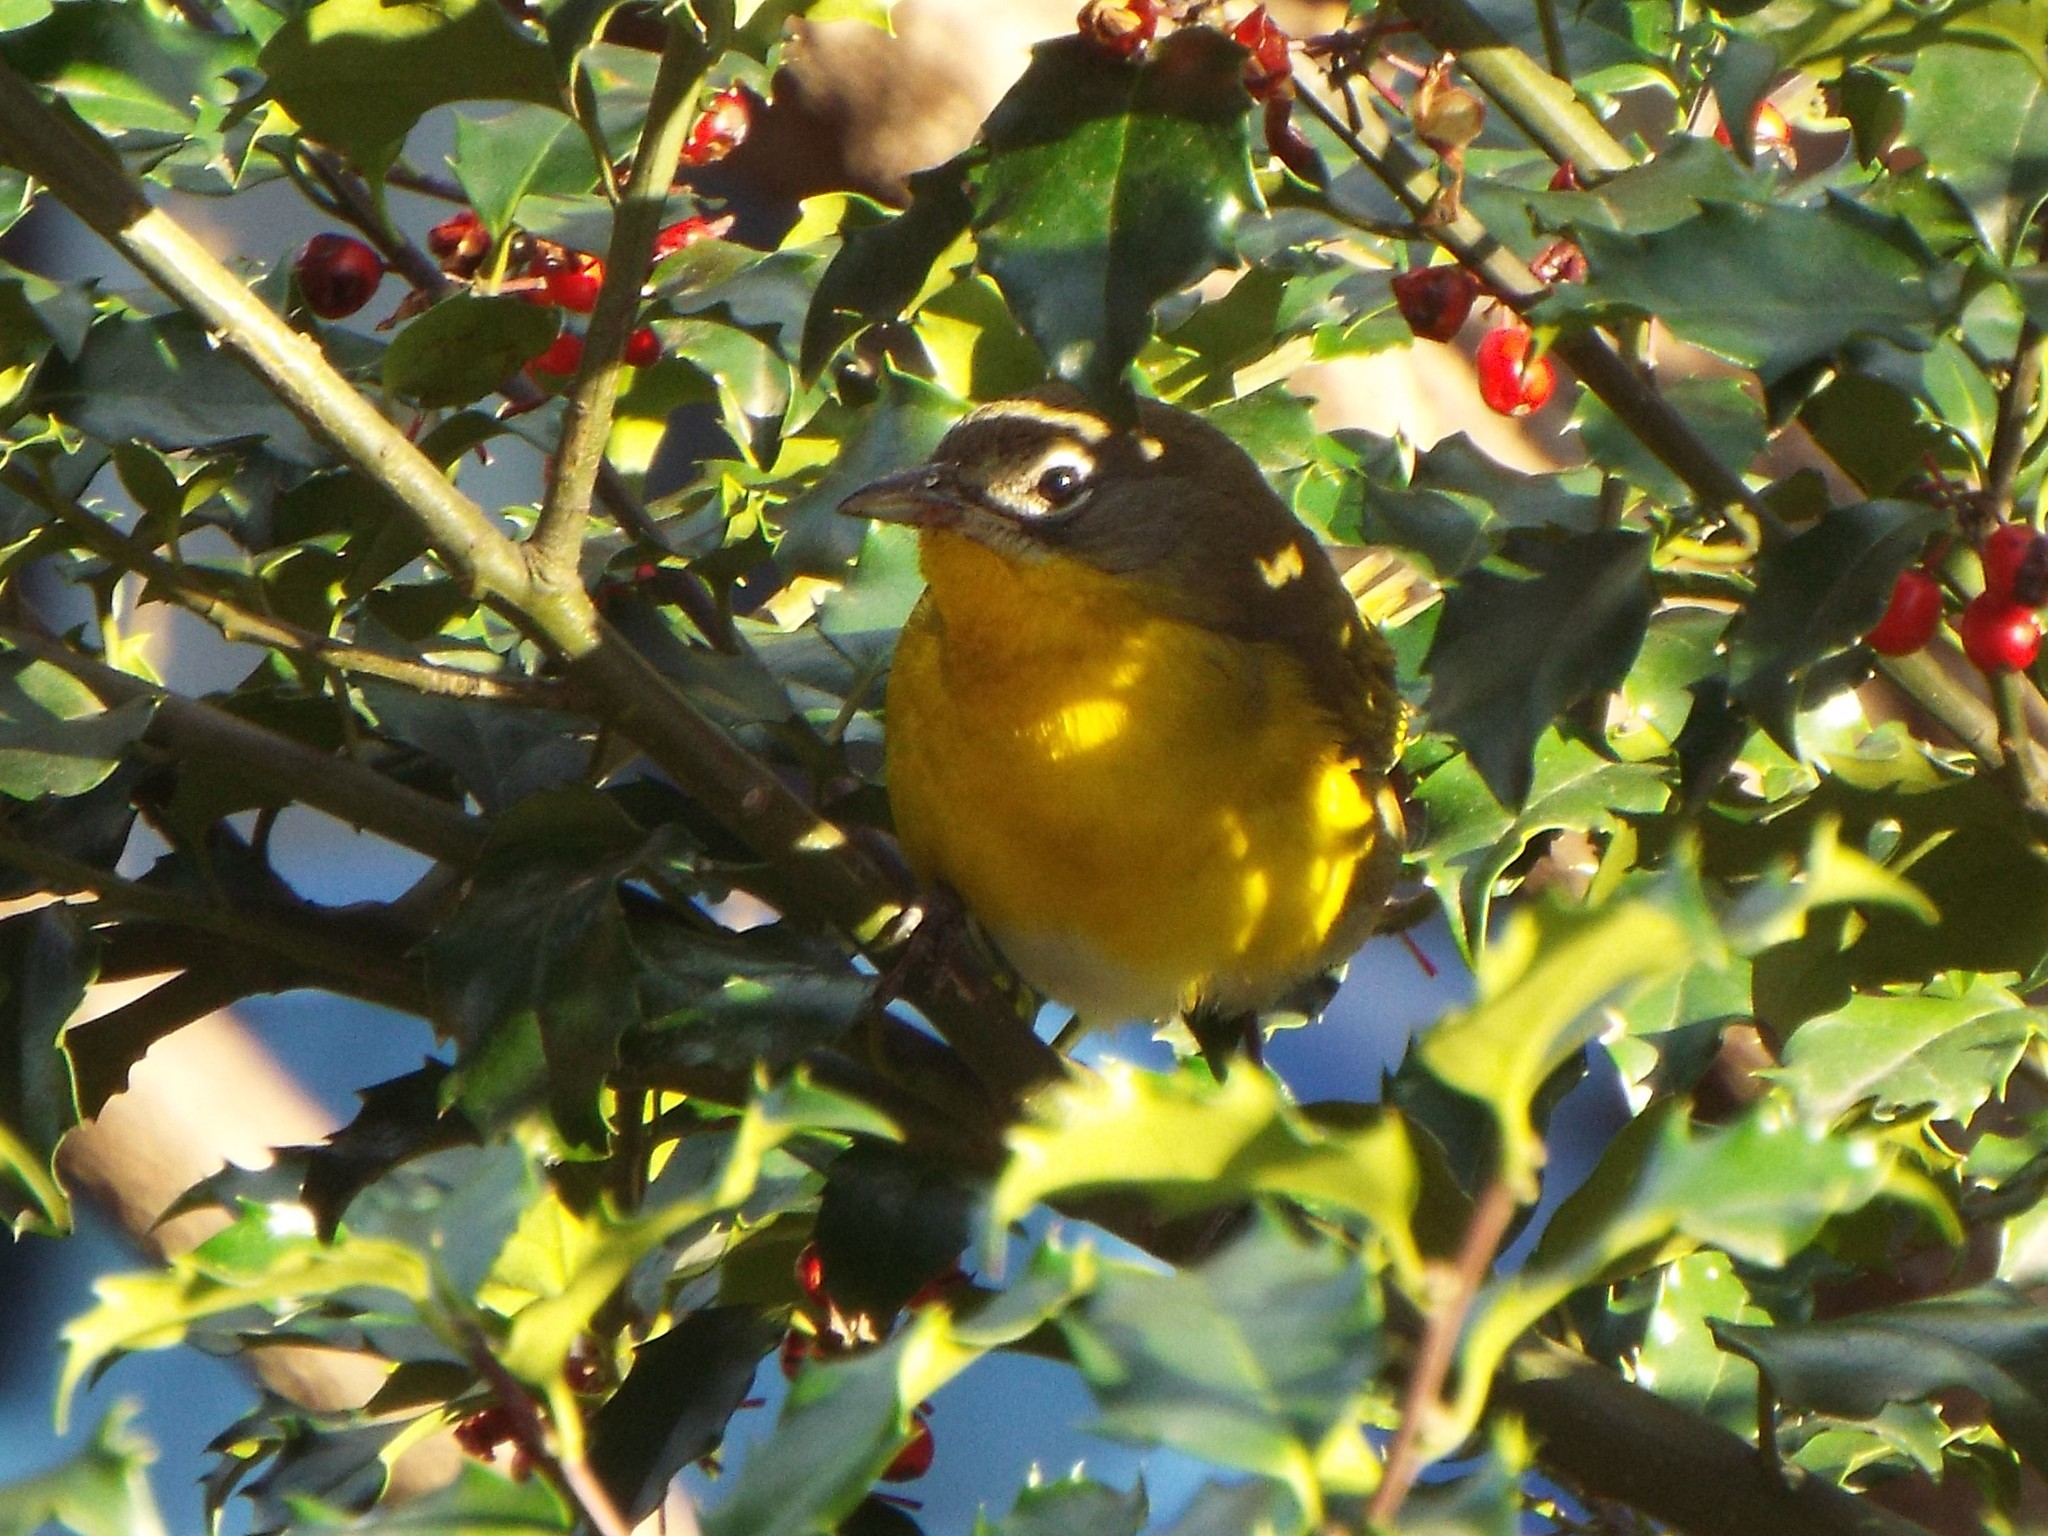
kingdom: Animalia
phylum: Chordata
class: Aves
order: Passeriformes
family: Parulidae
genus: Icteria
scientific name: Icteria virens
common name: Yellow-breasted chat
